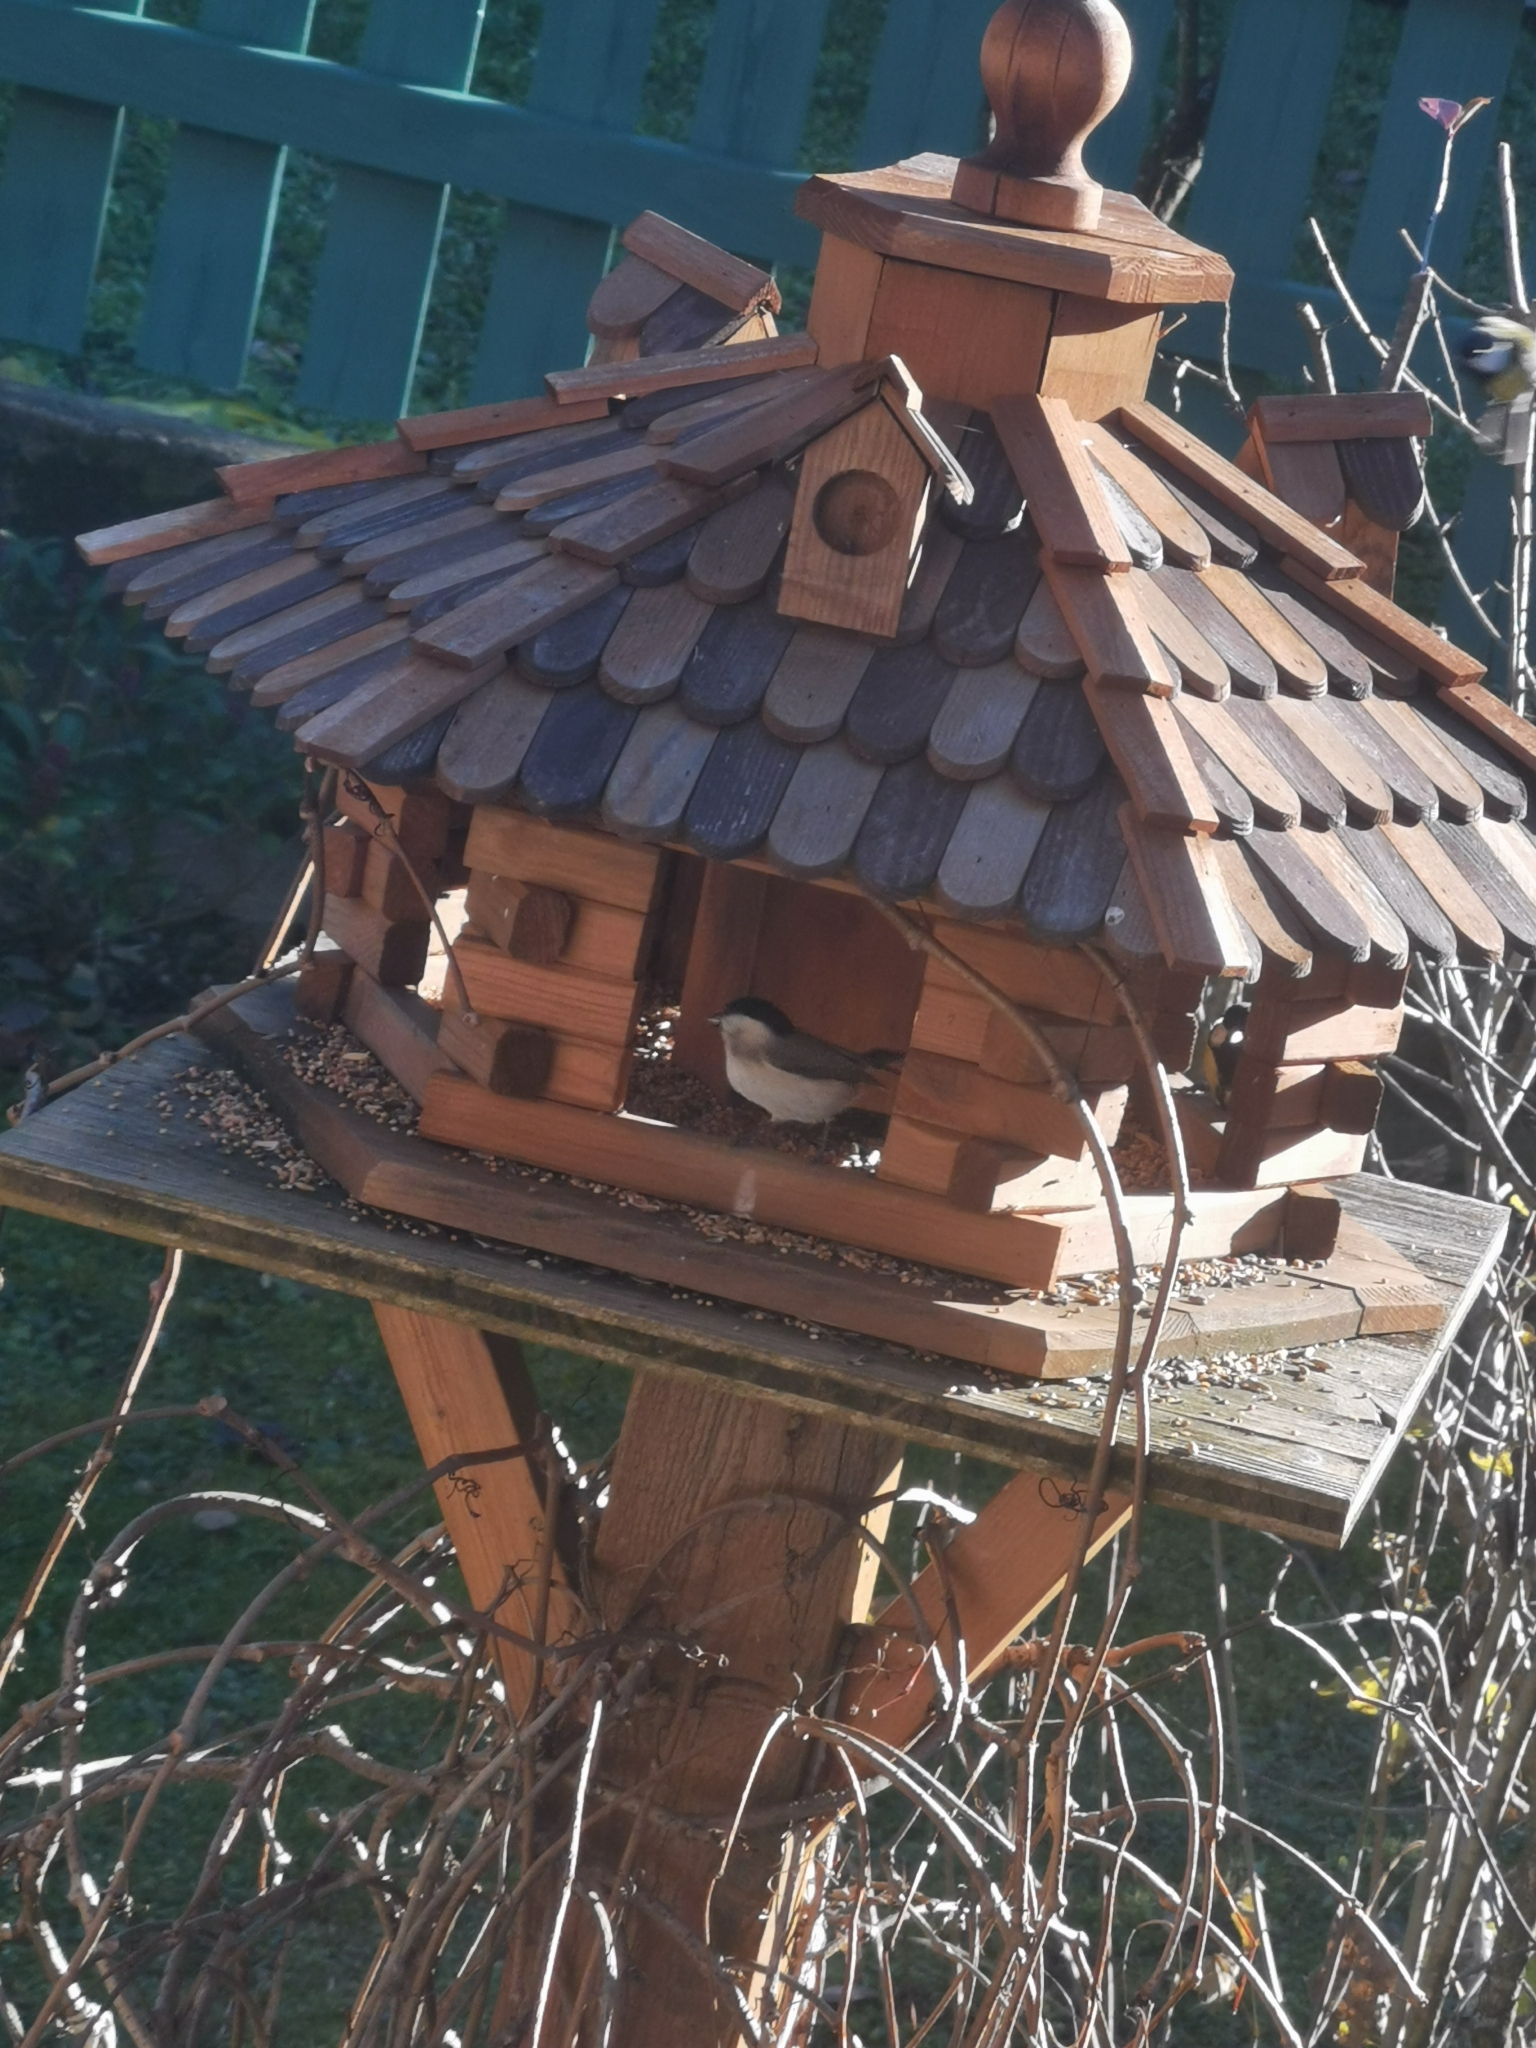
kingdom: Animalia
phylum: Chordata
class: Aves
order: Passeriformes
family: Paridae
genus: Poecile
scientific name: Poecile palustris
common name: Marsh tit
